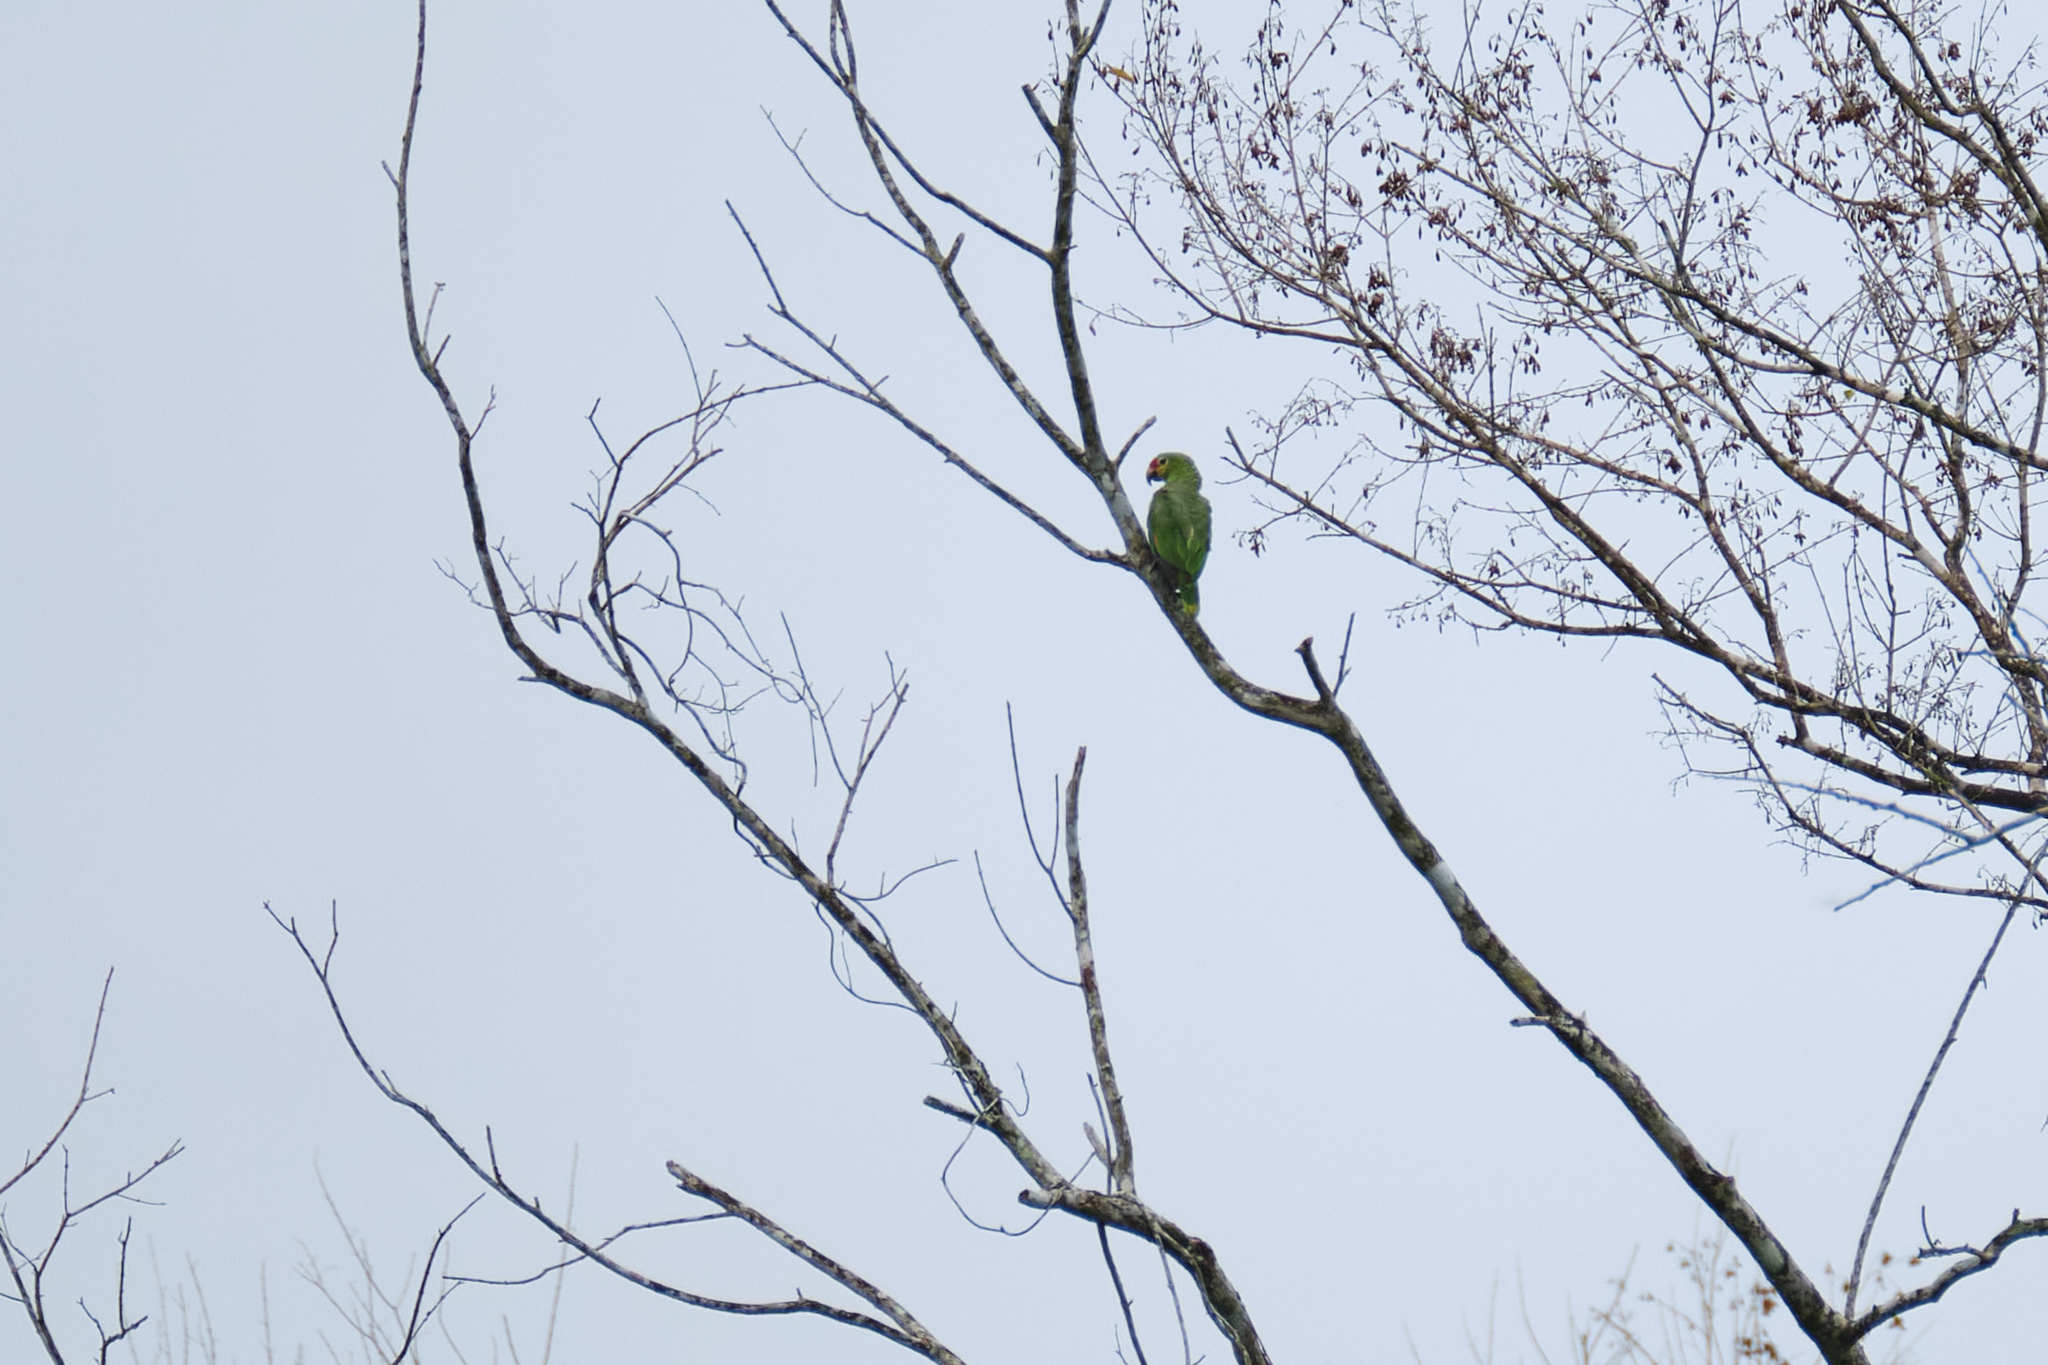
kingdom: Animalia
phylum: Chordata
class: Aves
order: Psittaciformes
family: Psittacidae
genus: Amazona
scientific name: Amazona autumnalis
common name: Red-lored amazon
